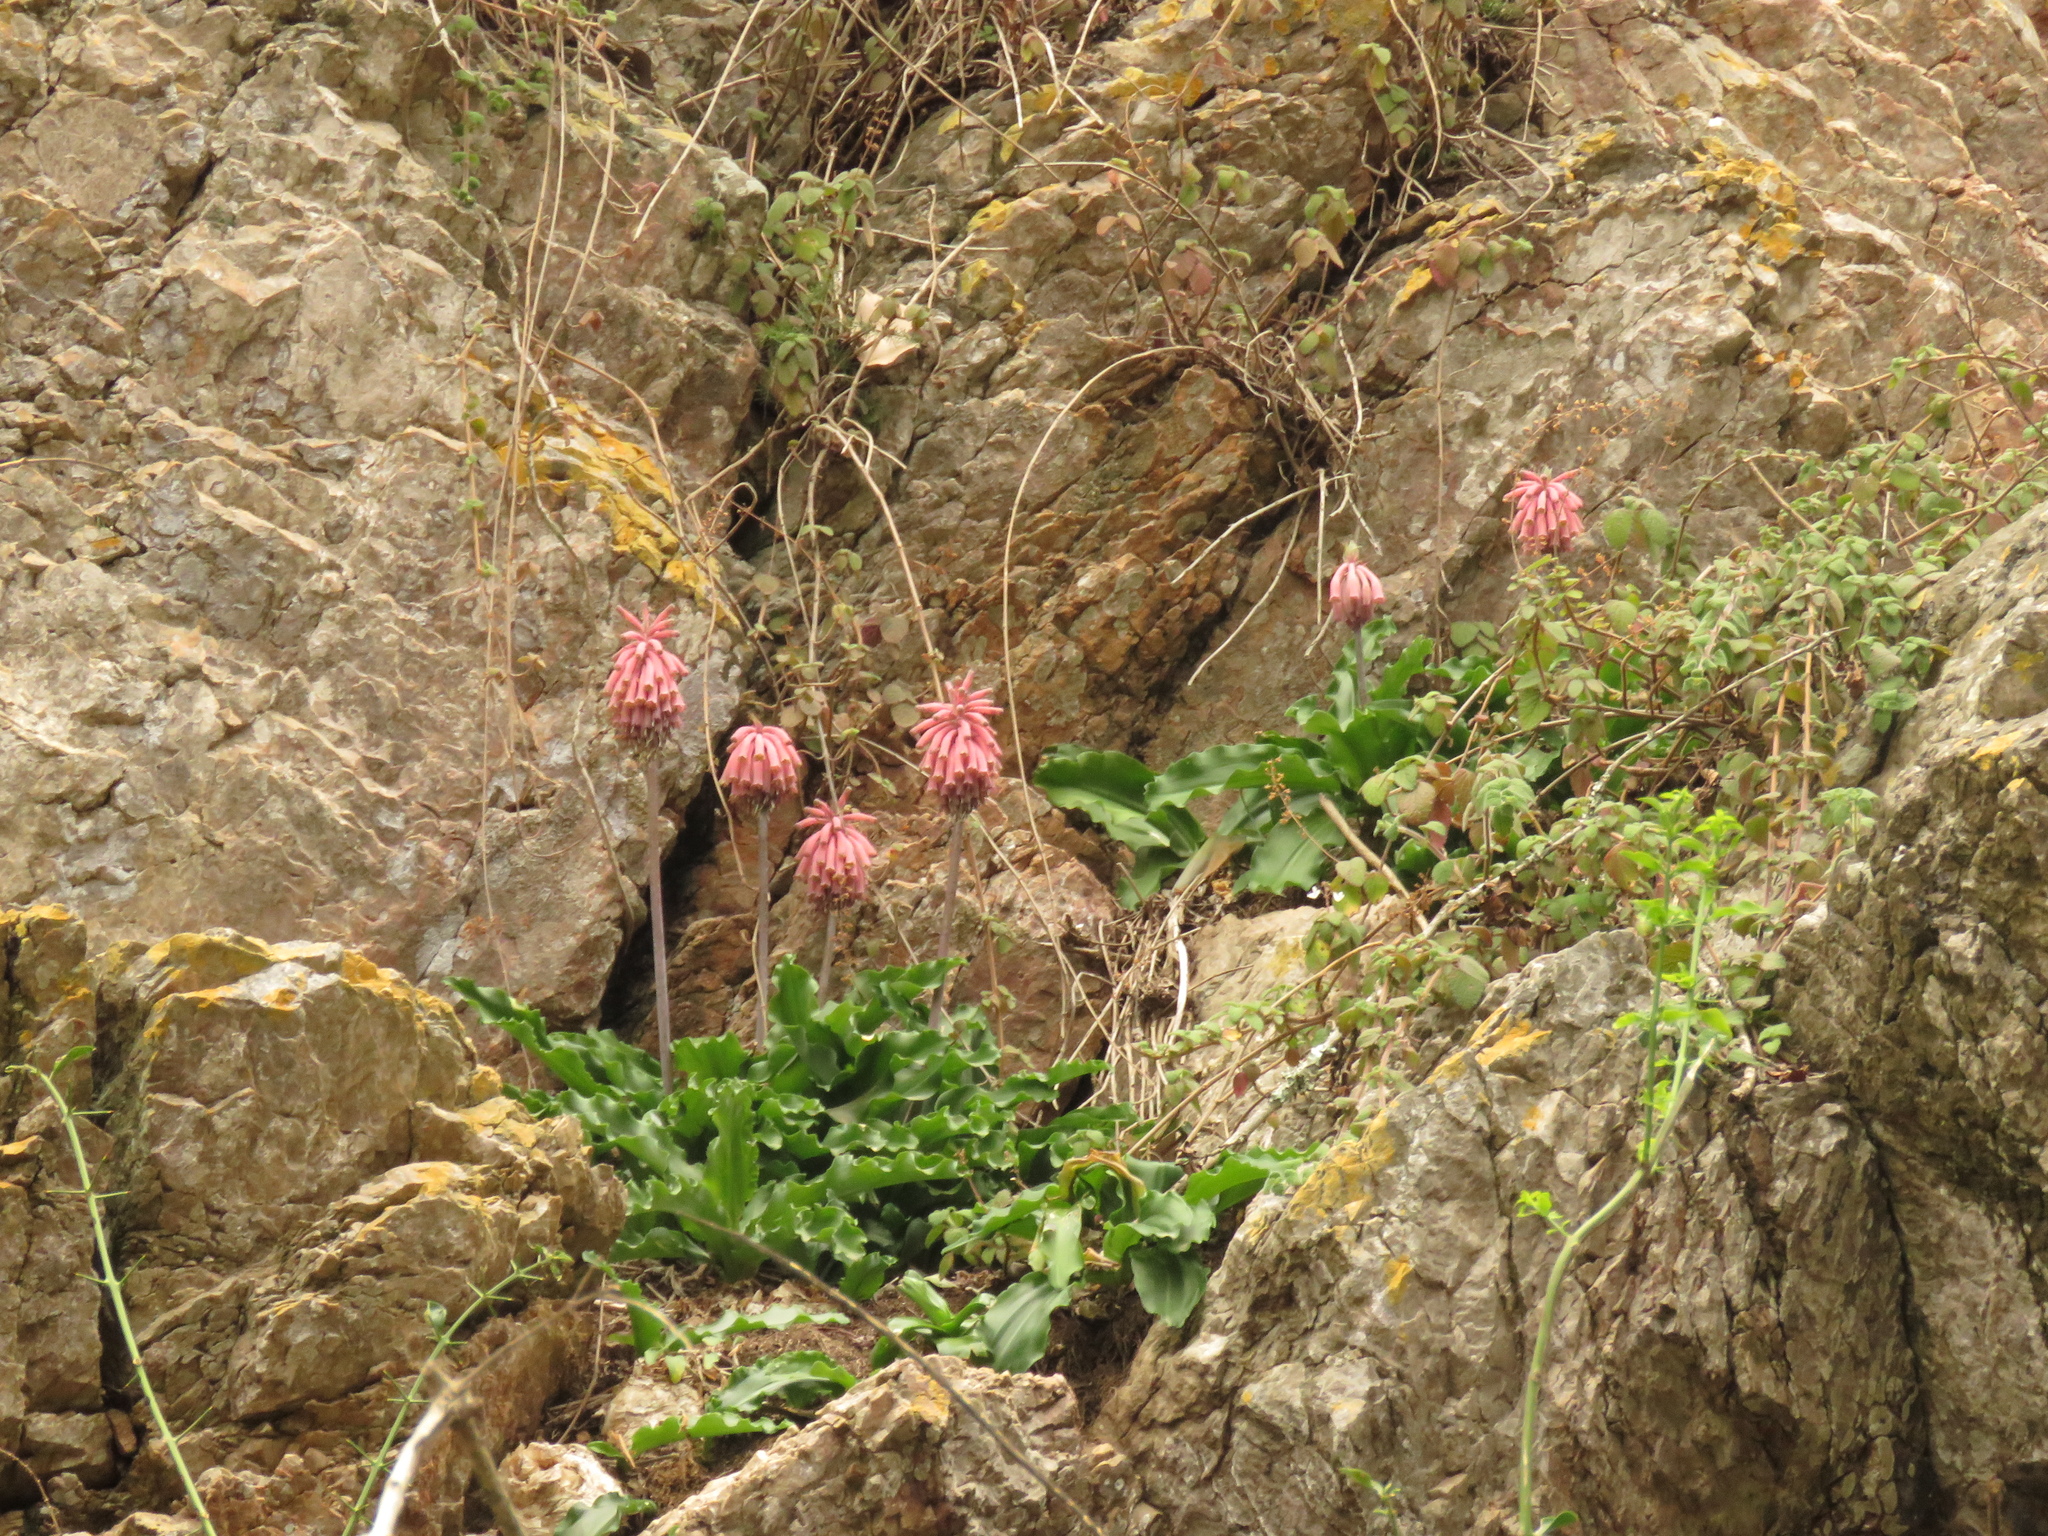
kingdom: Plantae
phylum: Tracheophyta
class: Liliopsida
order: Asparagales
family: Asparagaceae
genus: Veltheimia
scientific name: Veltheimia bracteata
